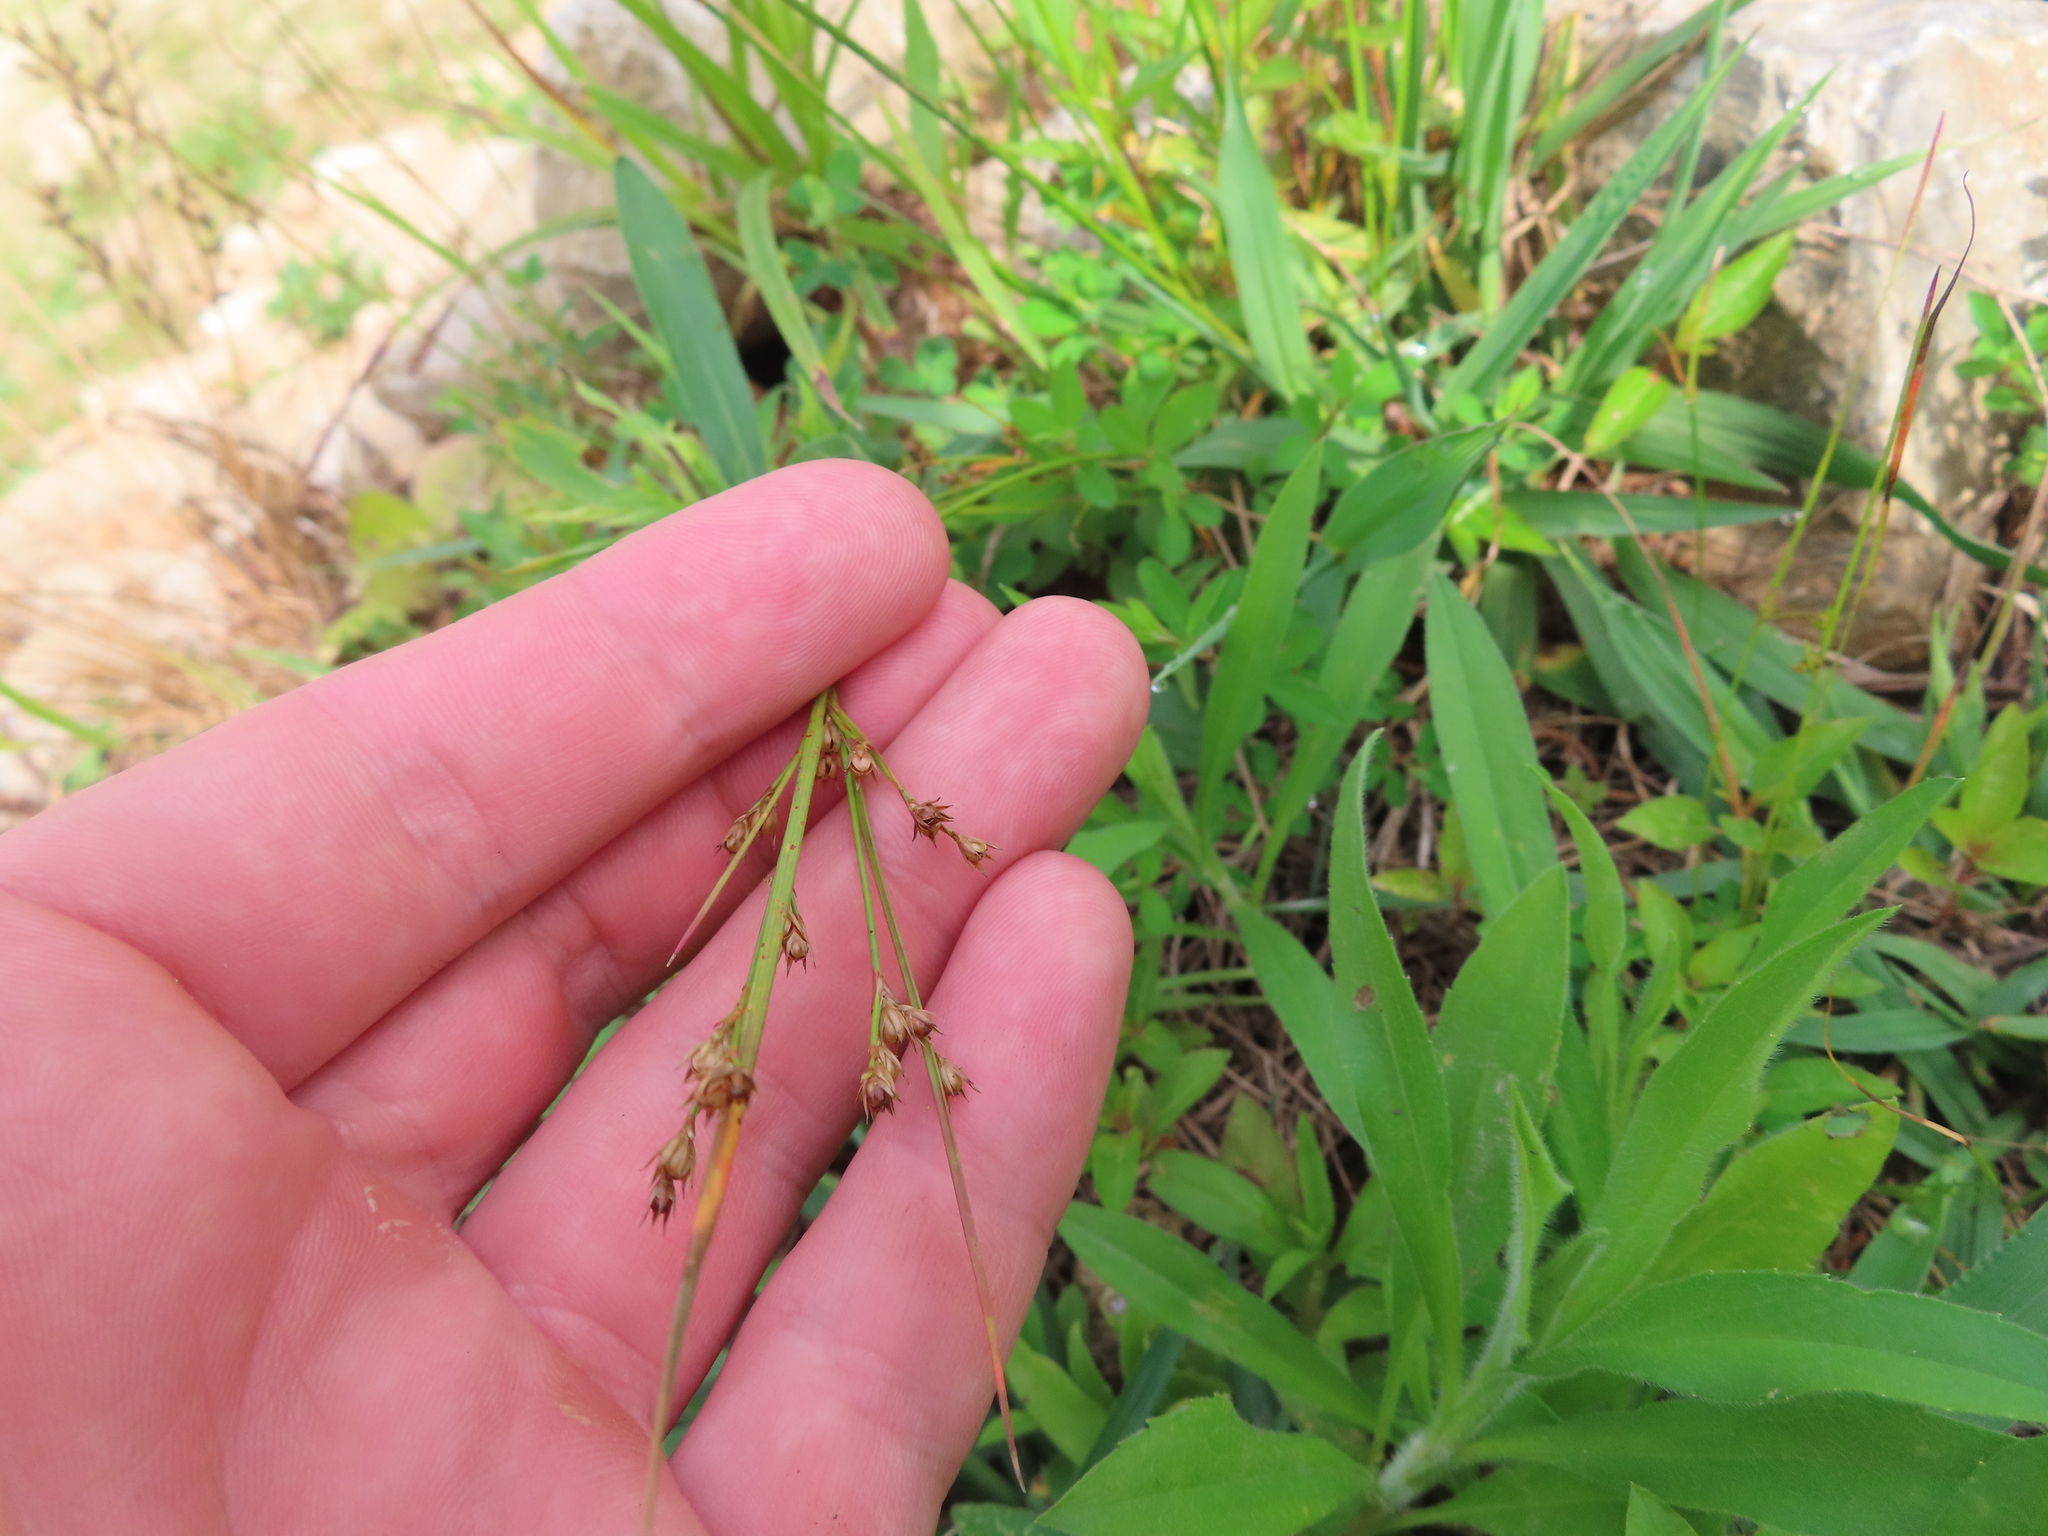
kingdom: Plantae
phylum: Tracheophyta
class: Liliopsida
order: Poales
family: Juncaceae
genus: Juncus
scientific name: Juncus tenuis
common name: Slender rush
